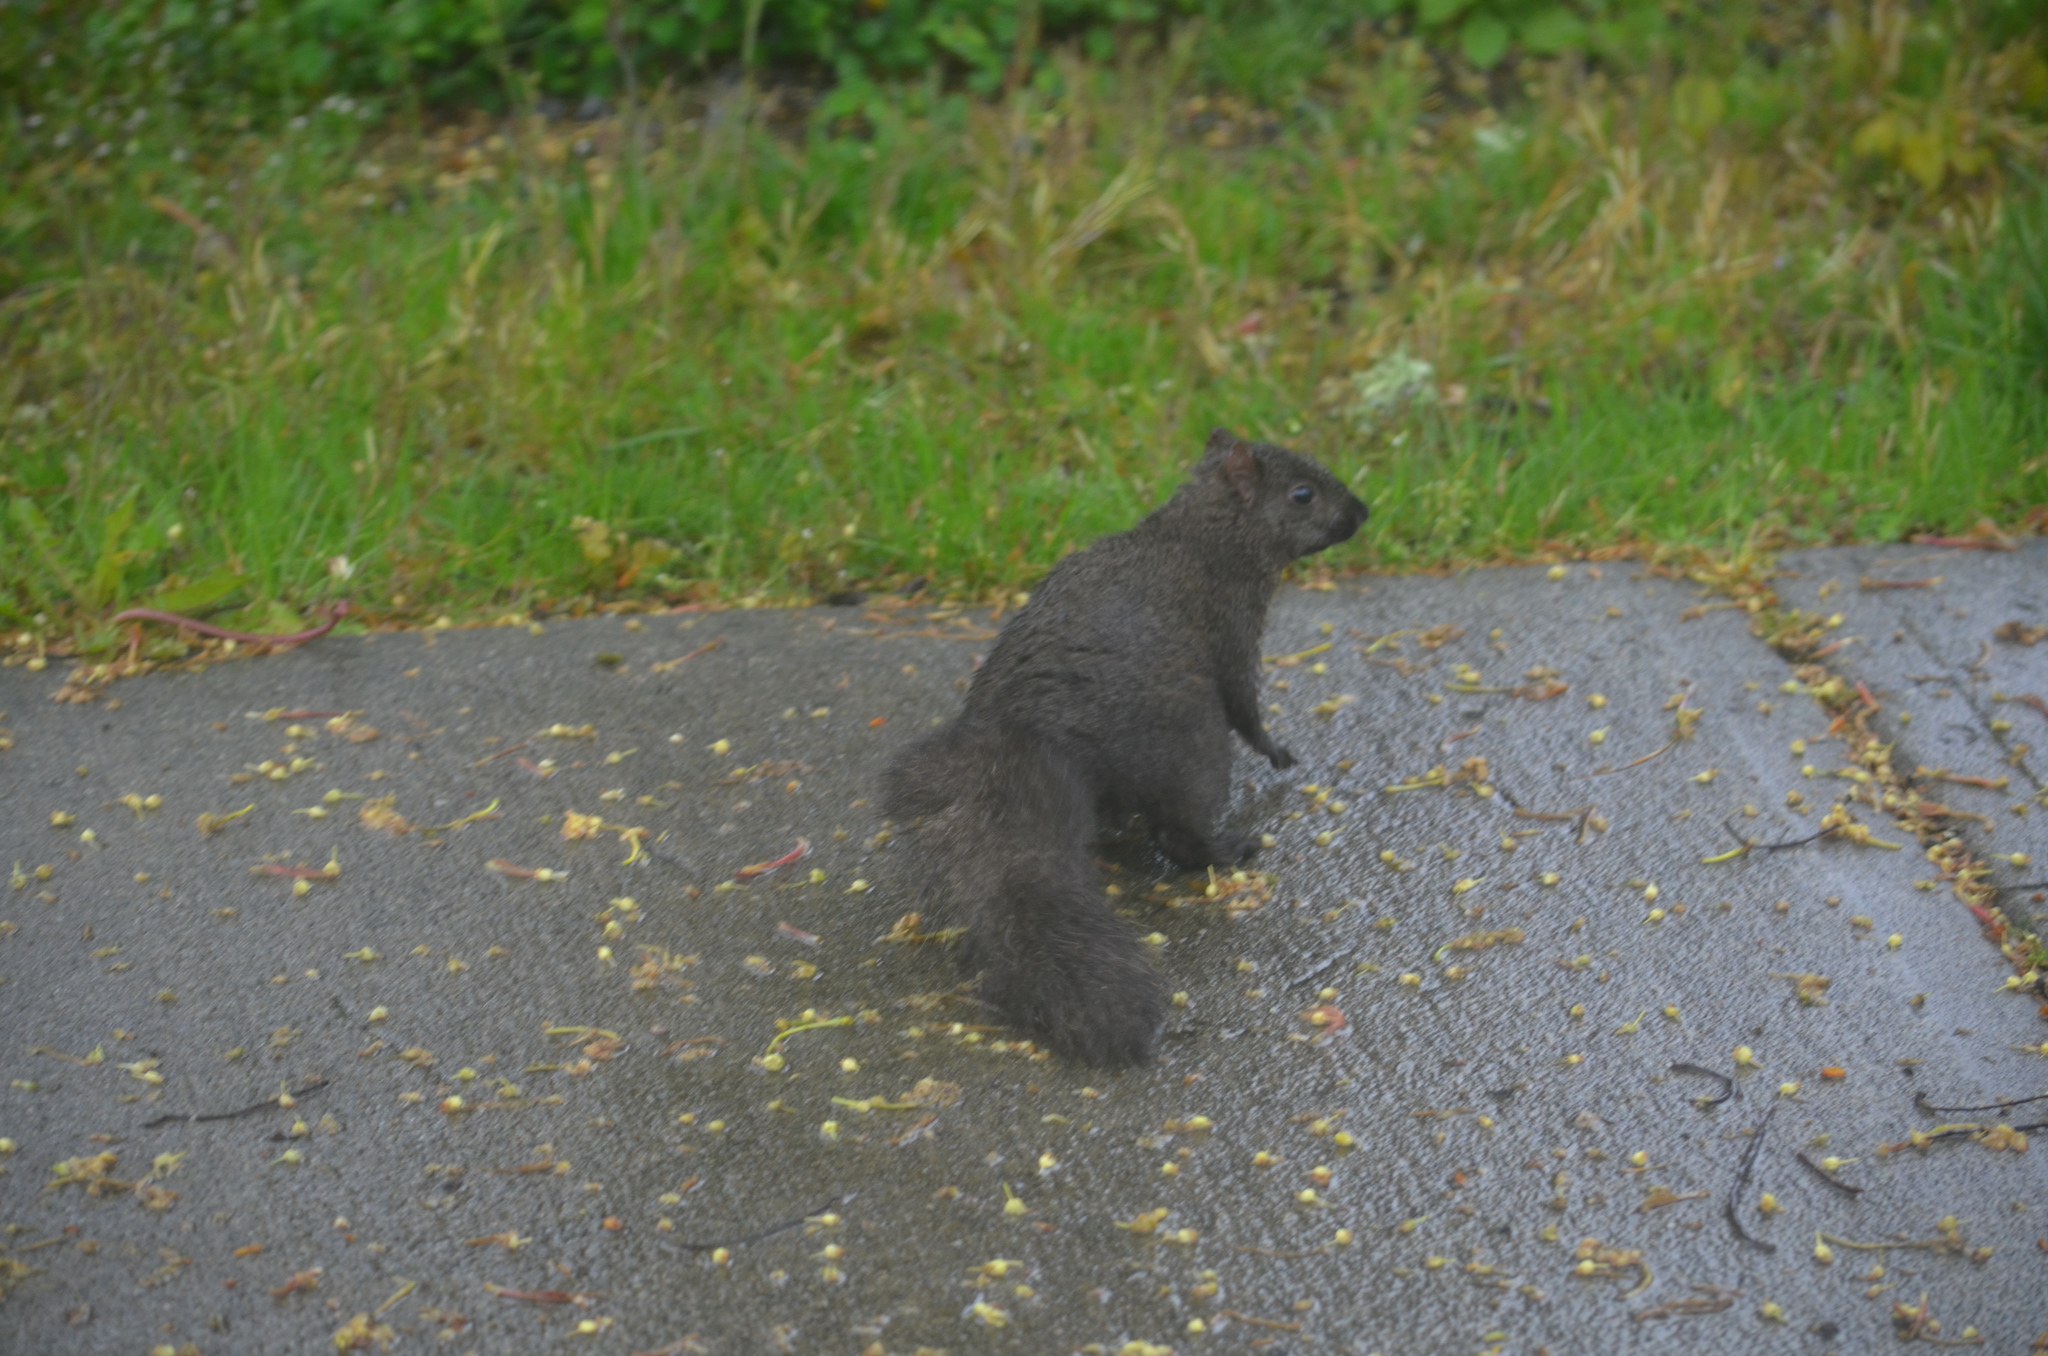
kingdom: Animalia
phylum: Chordata
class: Mammalia
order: Rodentia
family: Sciuridae
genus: Sciurus
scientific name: Sciurus carolinensis
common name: Eastern gray squirrel
